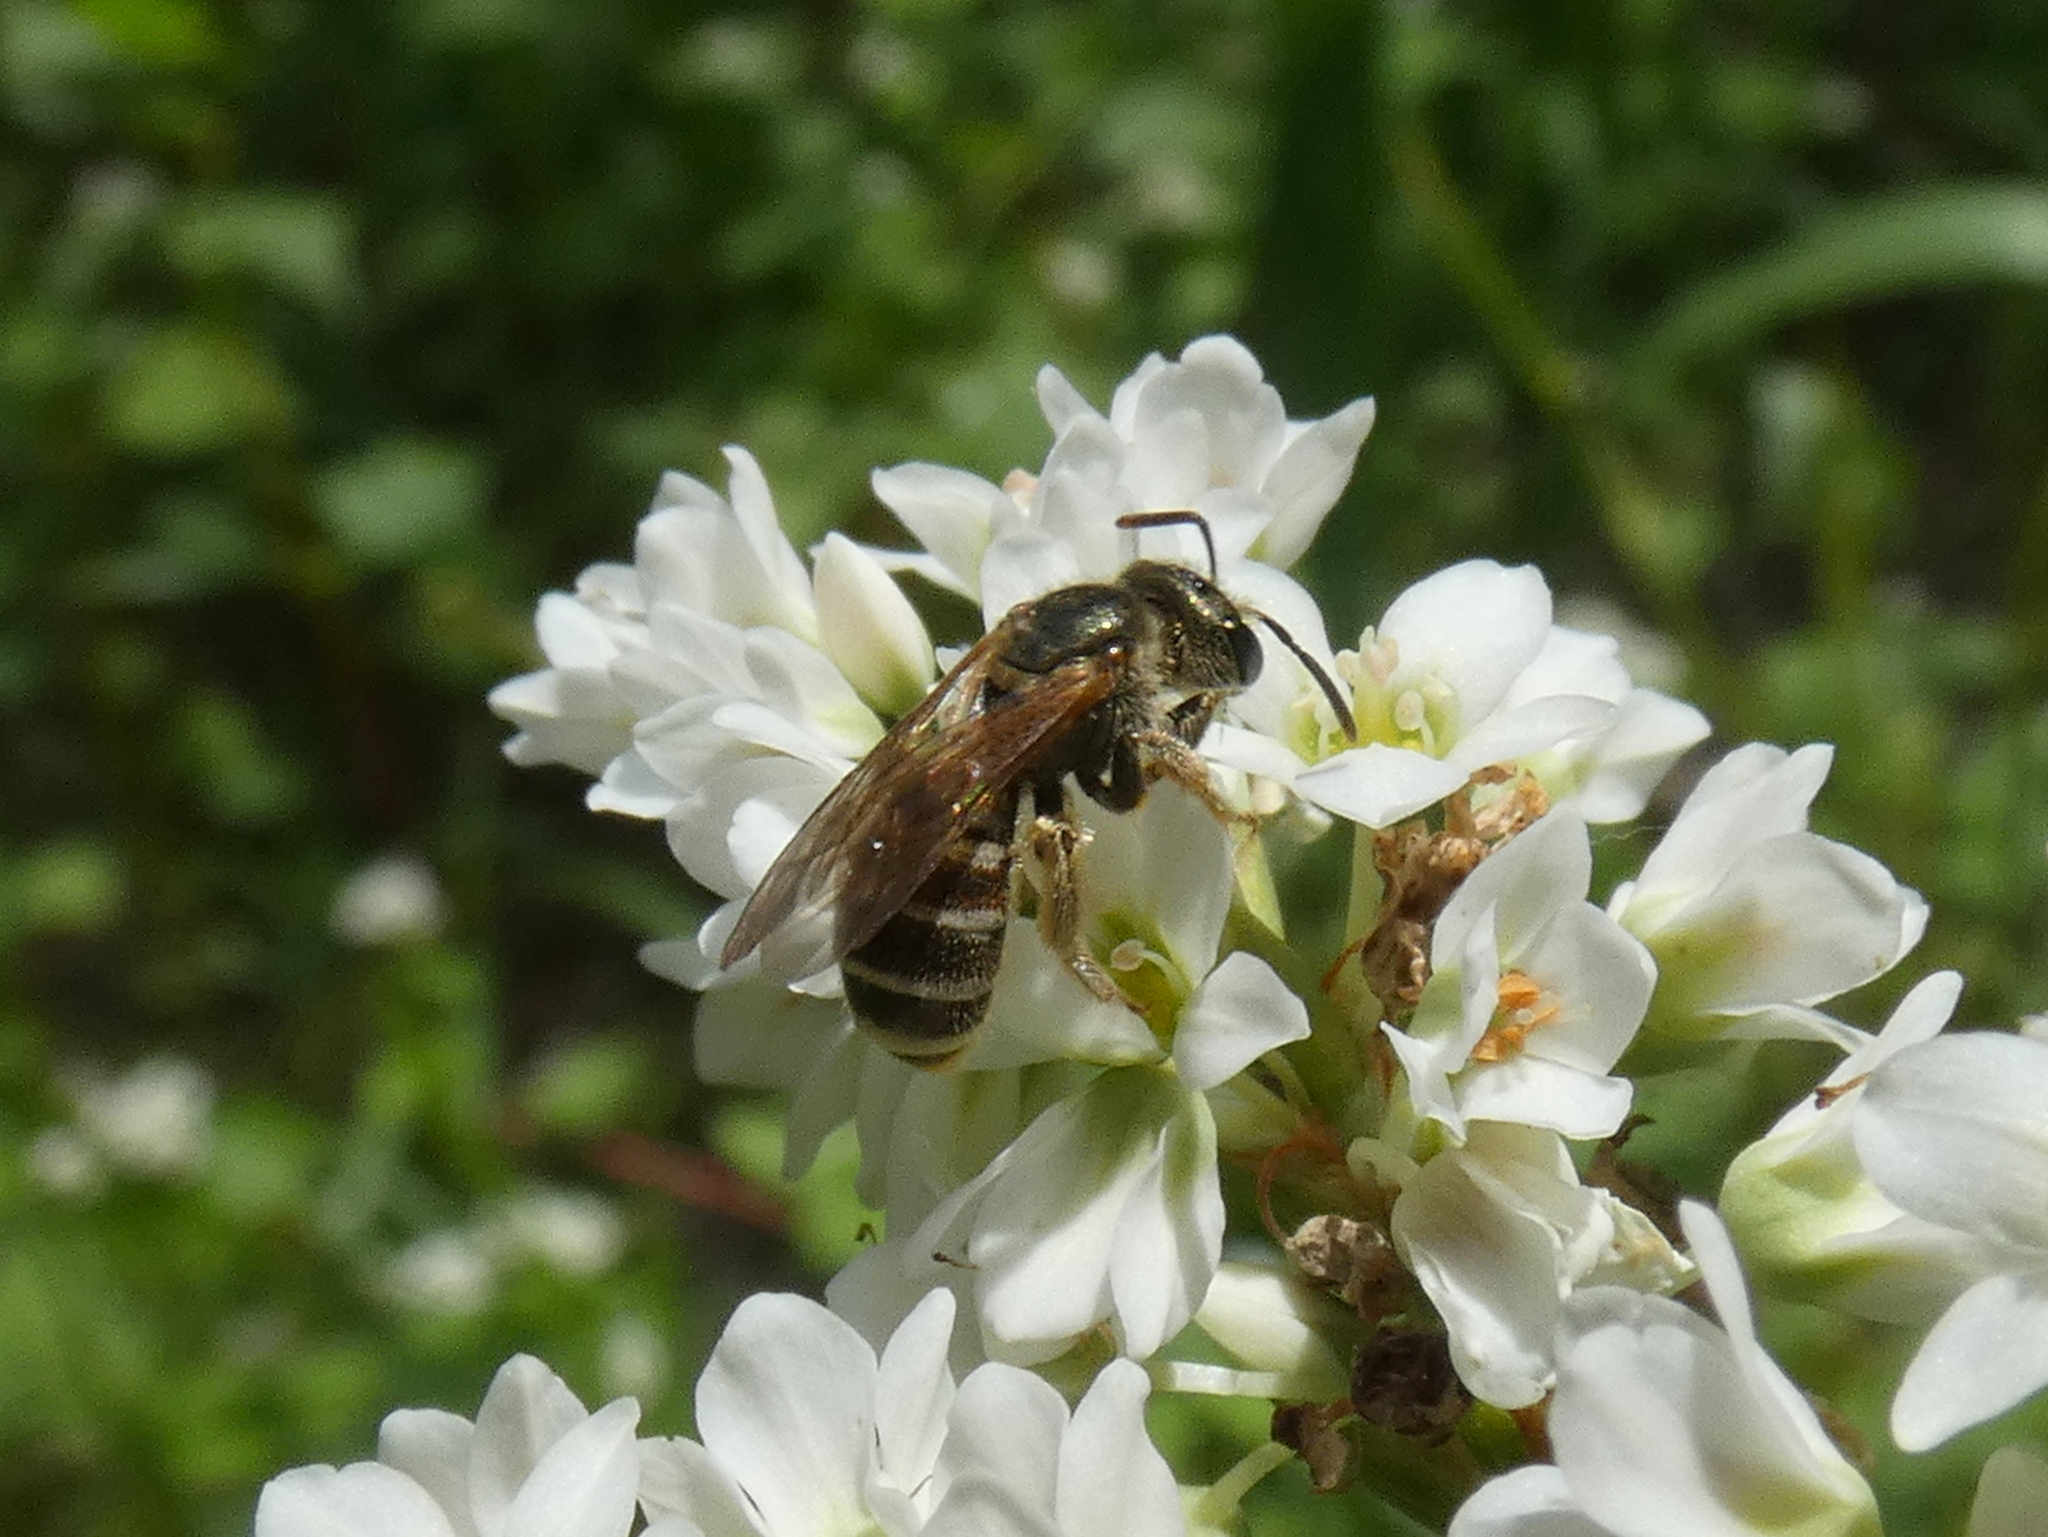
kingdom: Animalia
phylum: Arthropoda
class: Insecta
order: Hymenoptera
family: Halictidae
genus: Halictus
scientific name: Halictus confusus
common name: Southern bronze furrow bee
